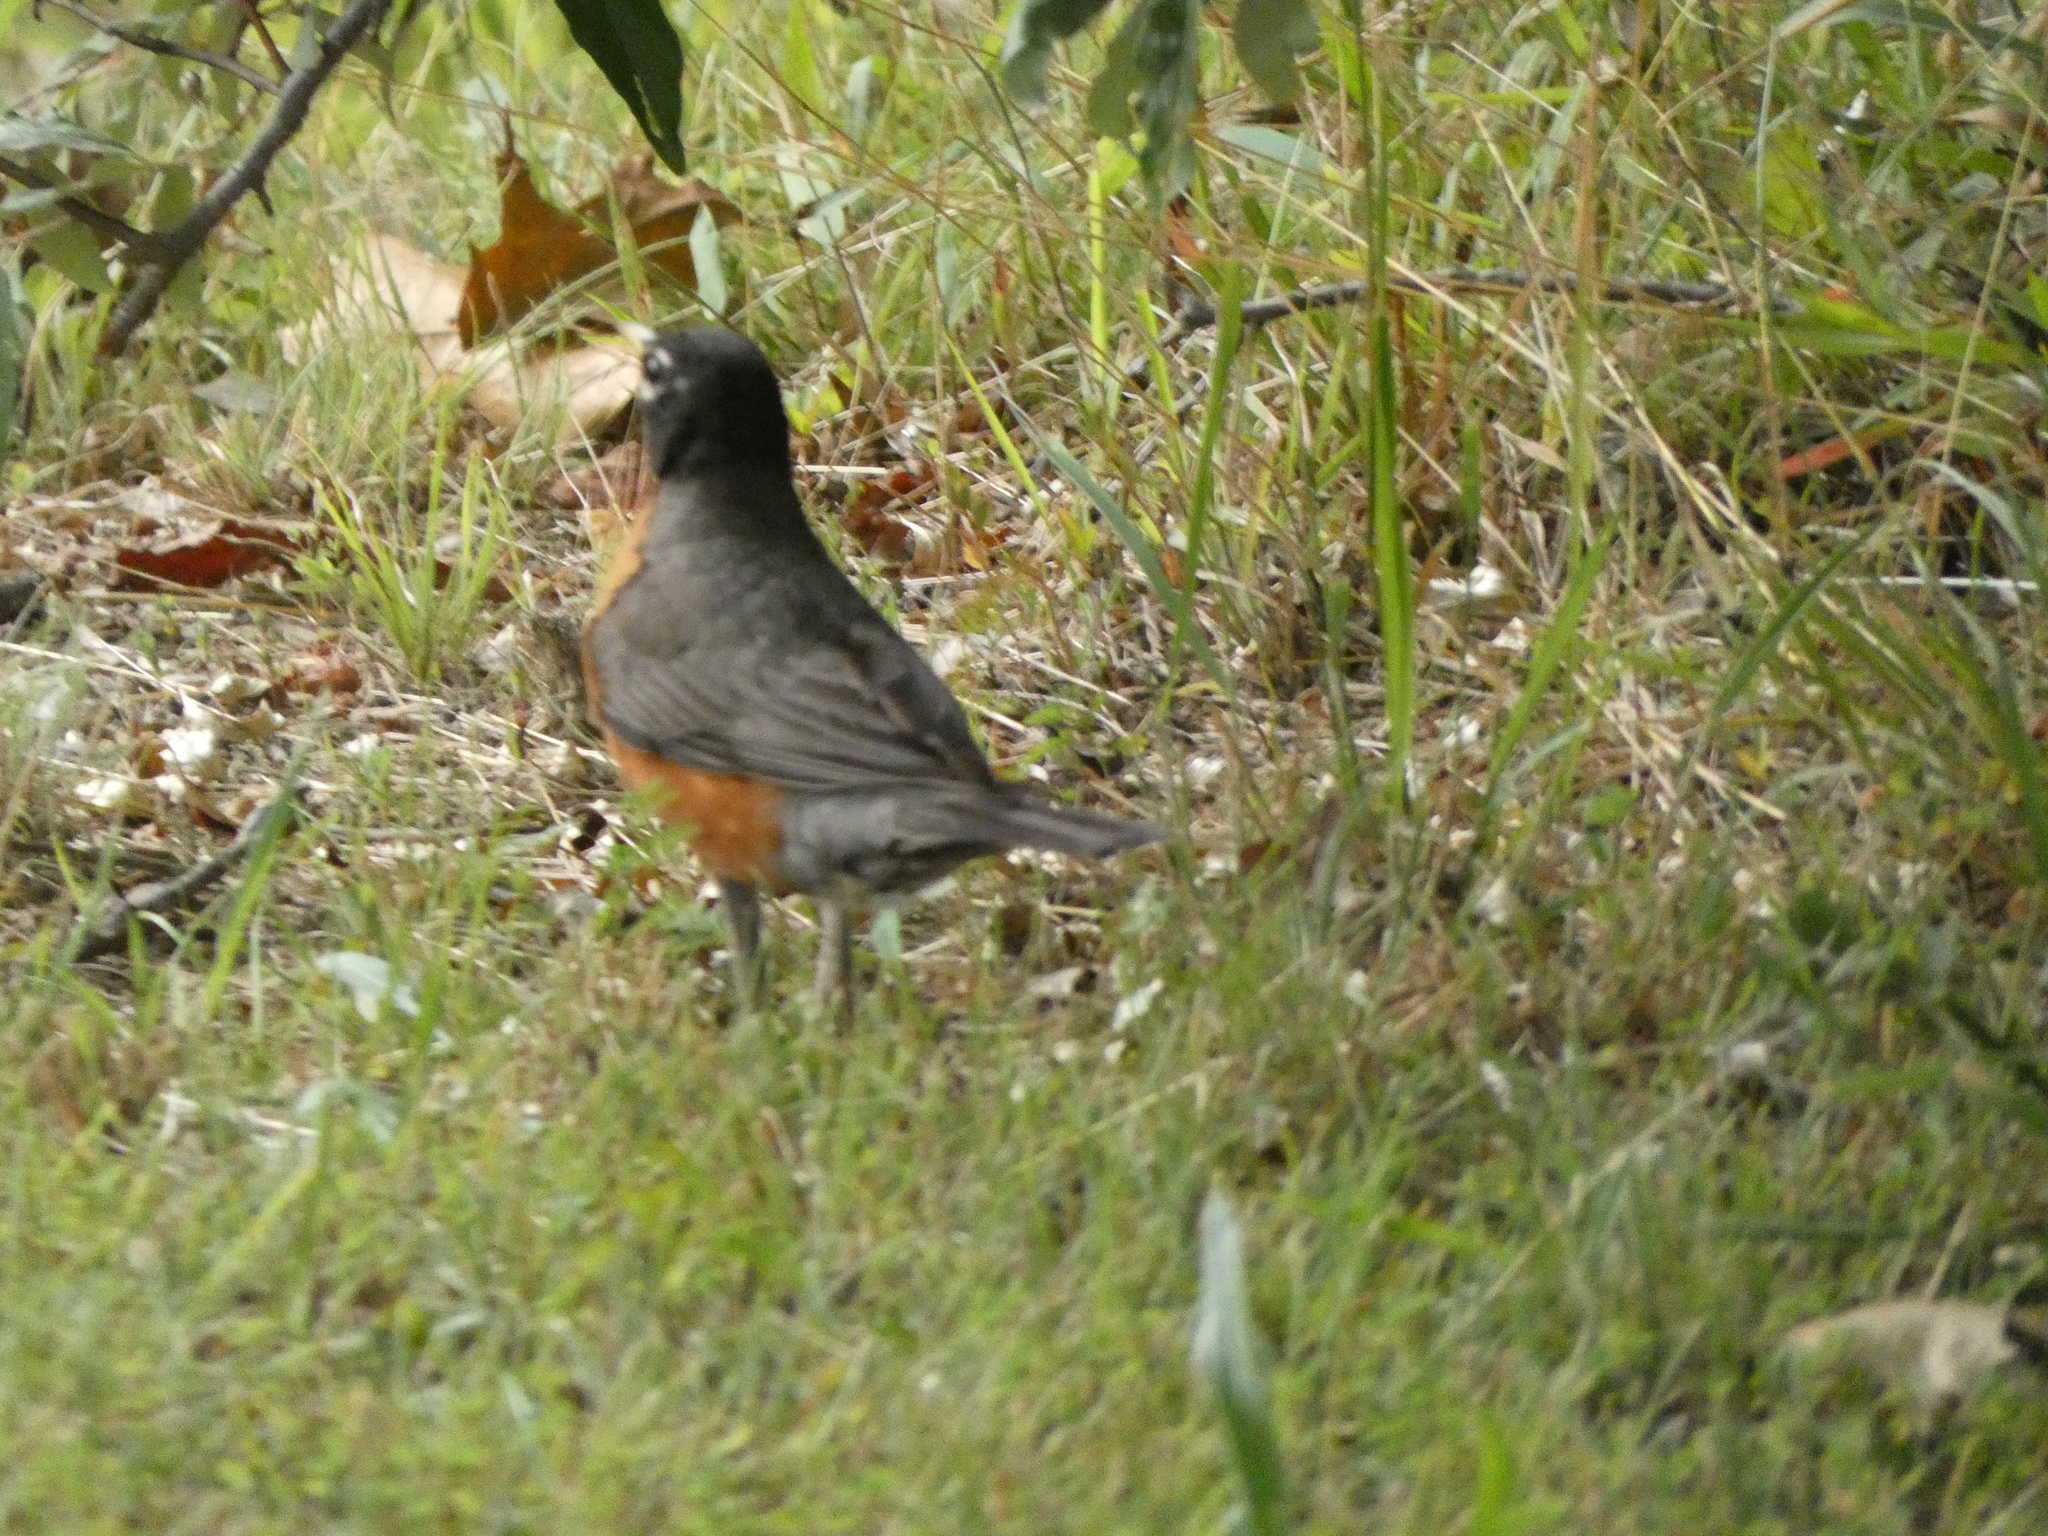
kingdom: Animalia
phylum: Chordata
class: Aves
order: Passeriformes
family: Turdidae
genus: Turdus
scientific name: Turdus migratorius
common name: American robin
